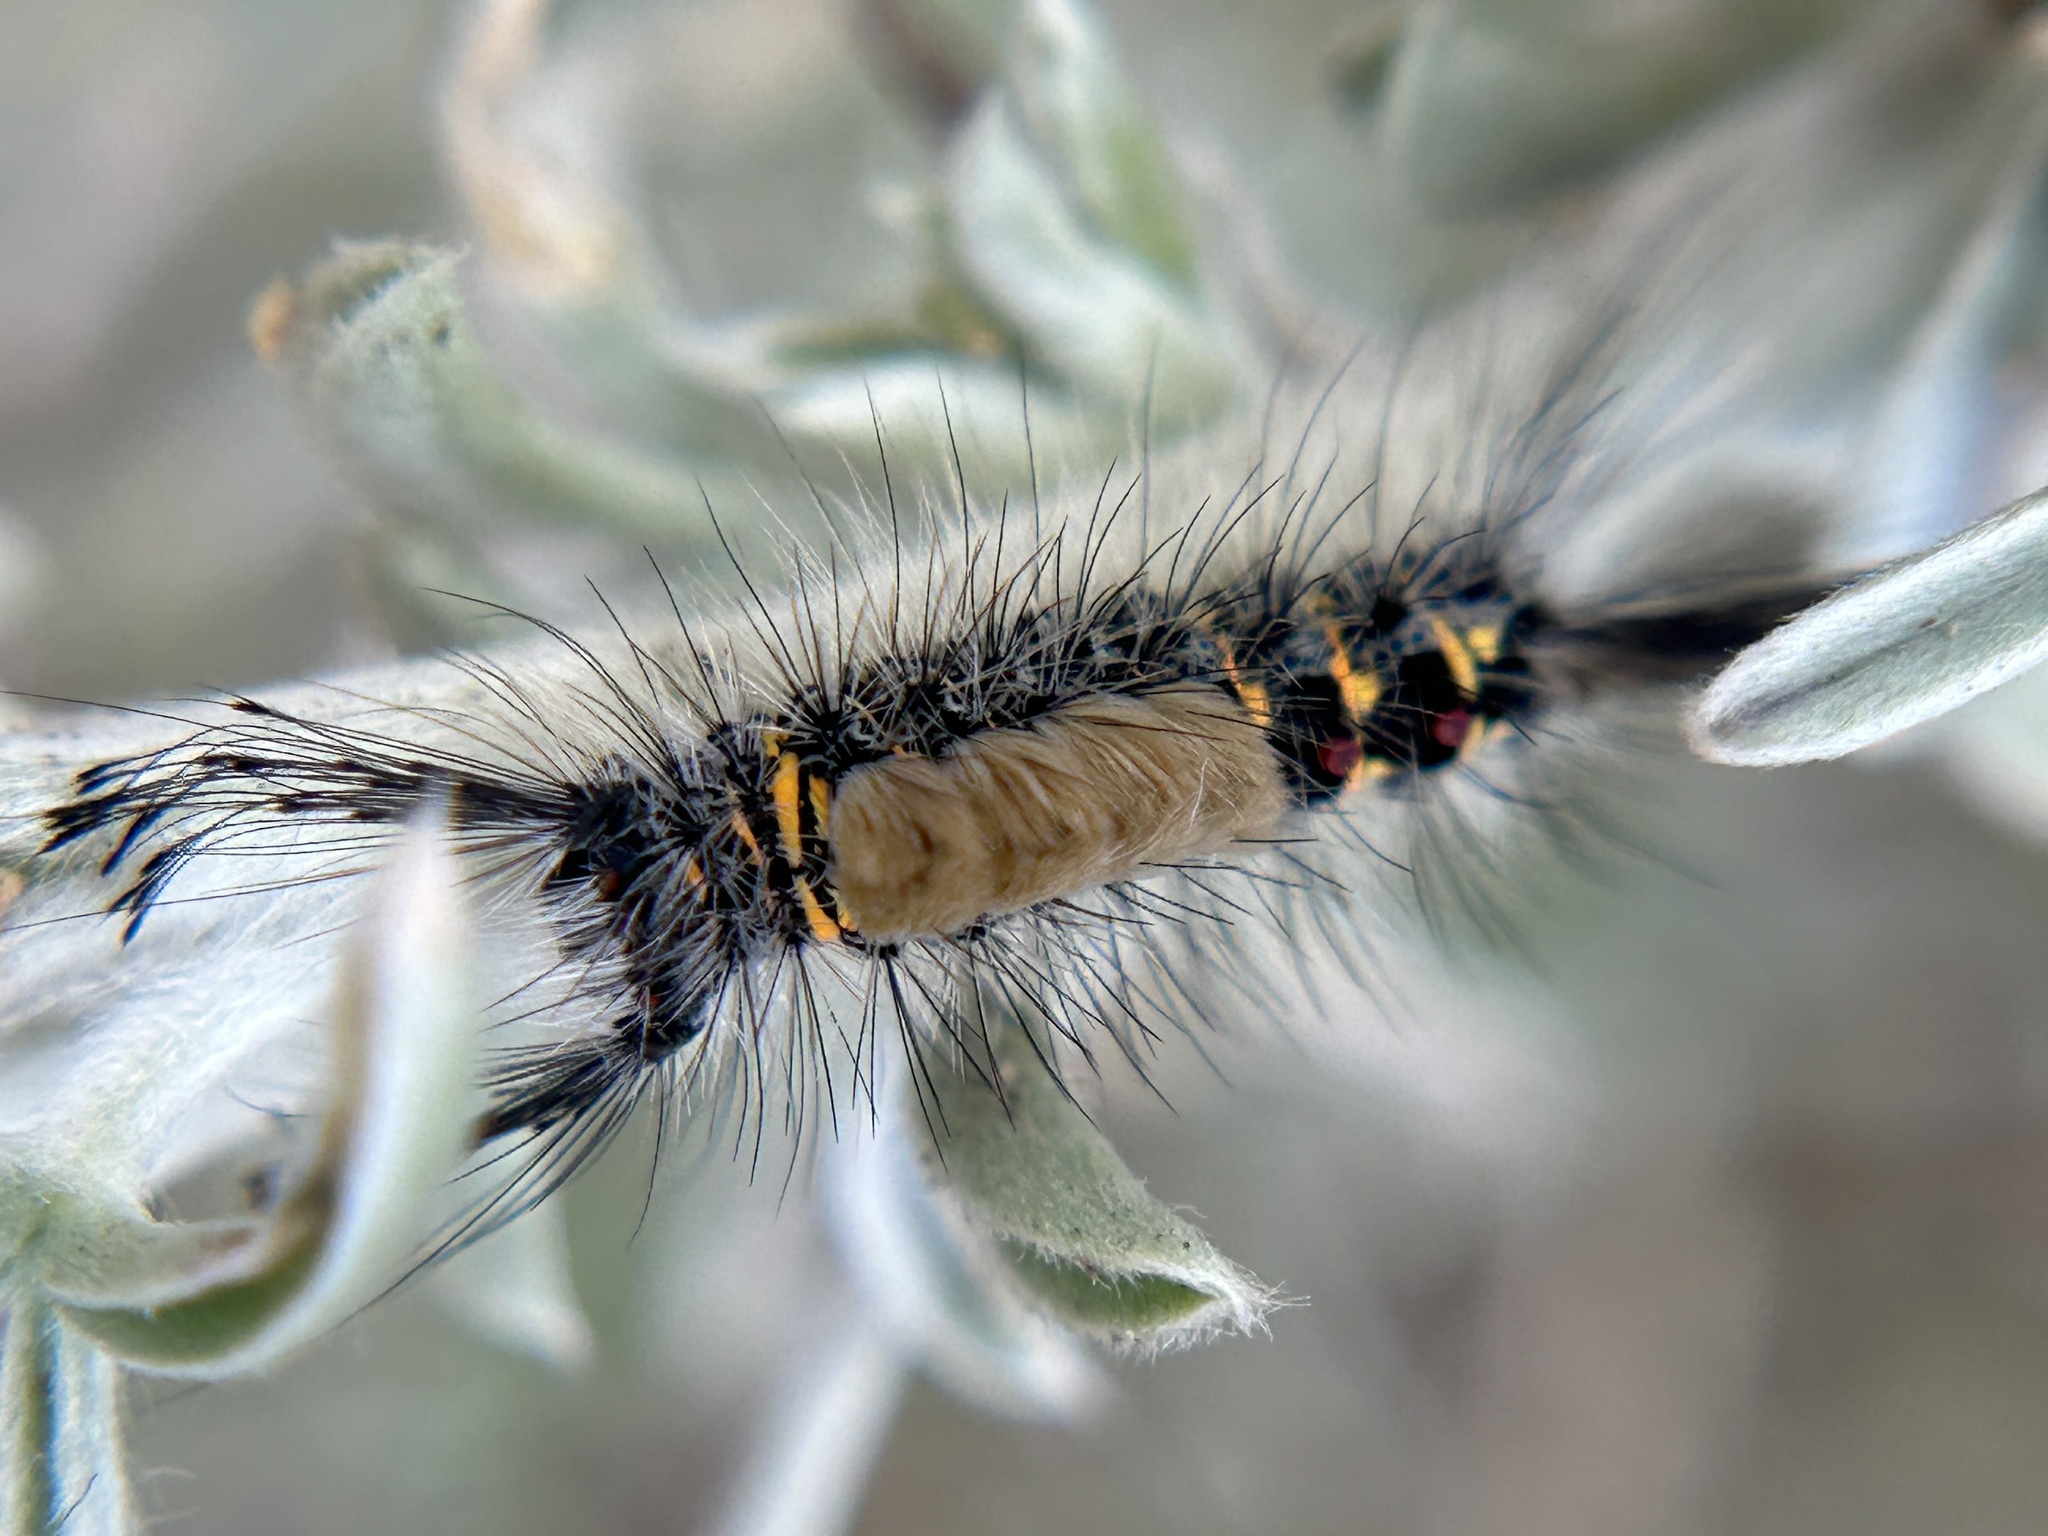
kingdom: Animalia
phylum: Arthropoda
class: Insecta
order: Lepidoptera
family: Erebidae
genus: Orgyia
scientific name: Orgyia
